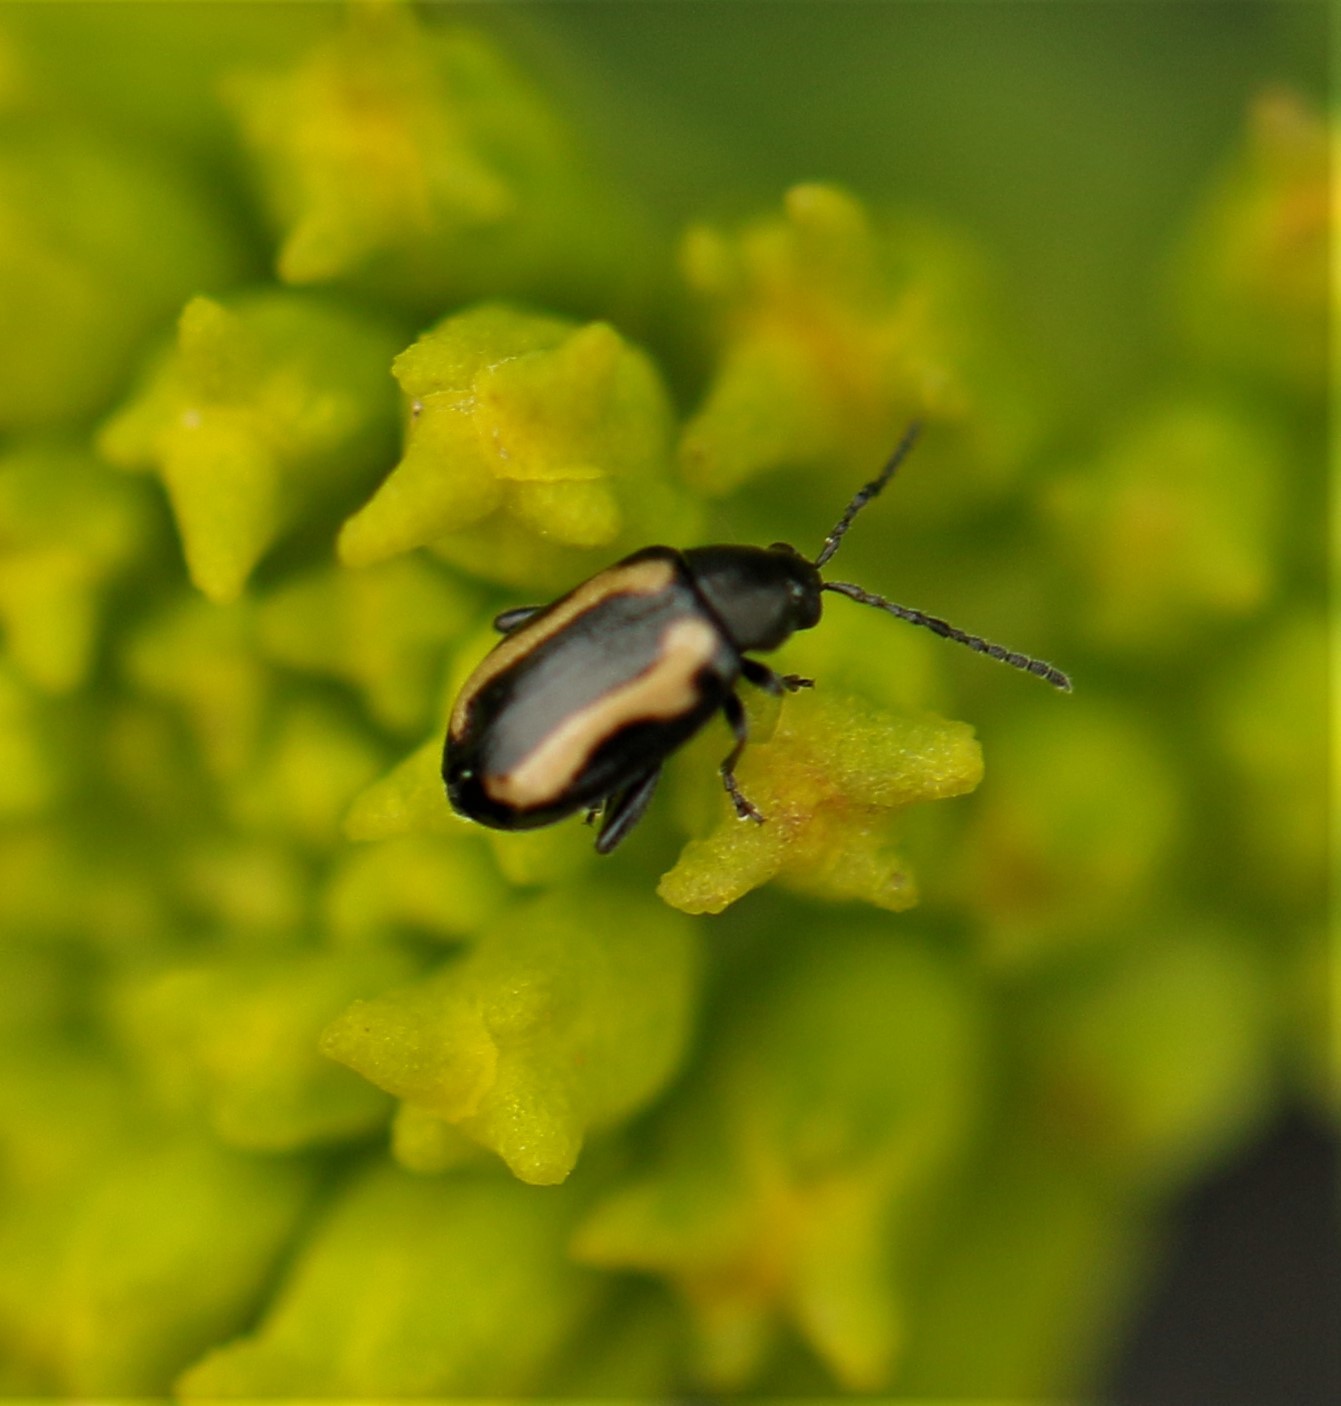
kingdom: Animalia
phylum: Arthropoda
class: Insecta
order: Coleoptera
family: Chrysomelidae
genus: Phyllotreta
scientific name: Phyllotreta striolata
